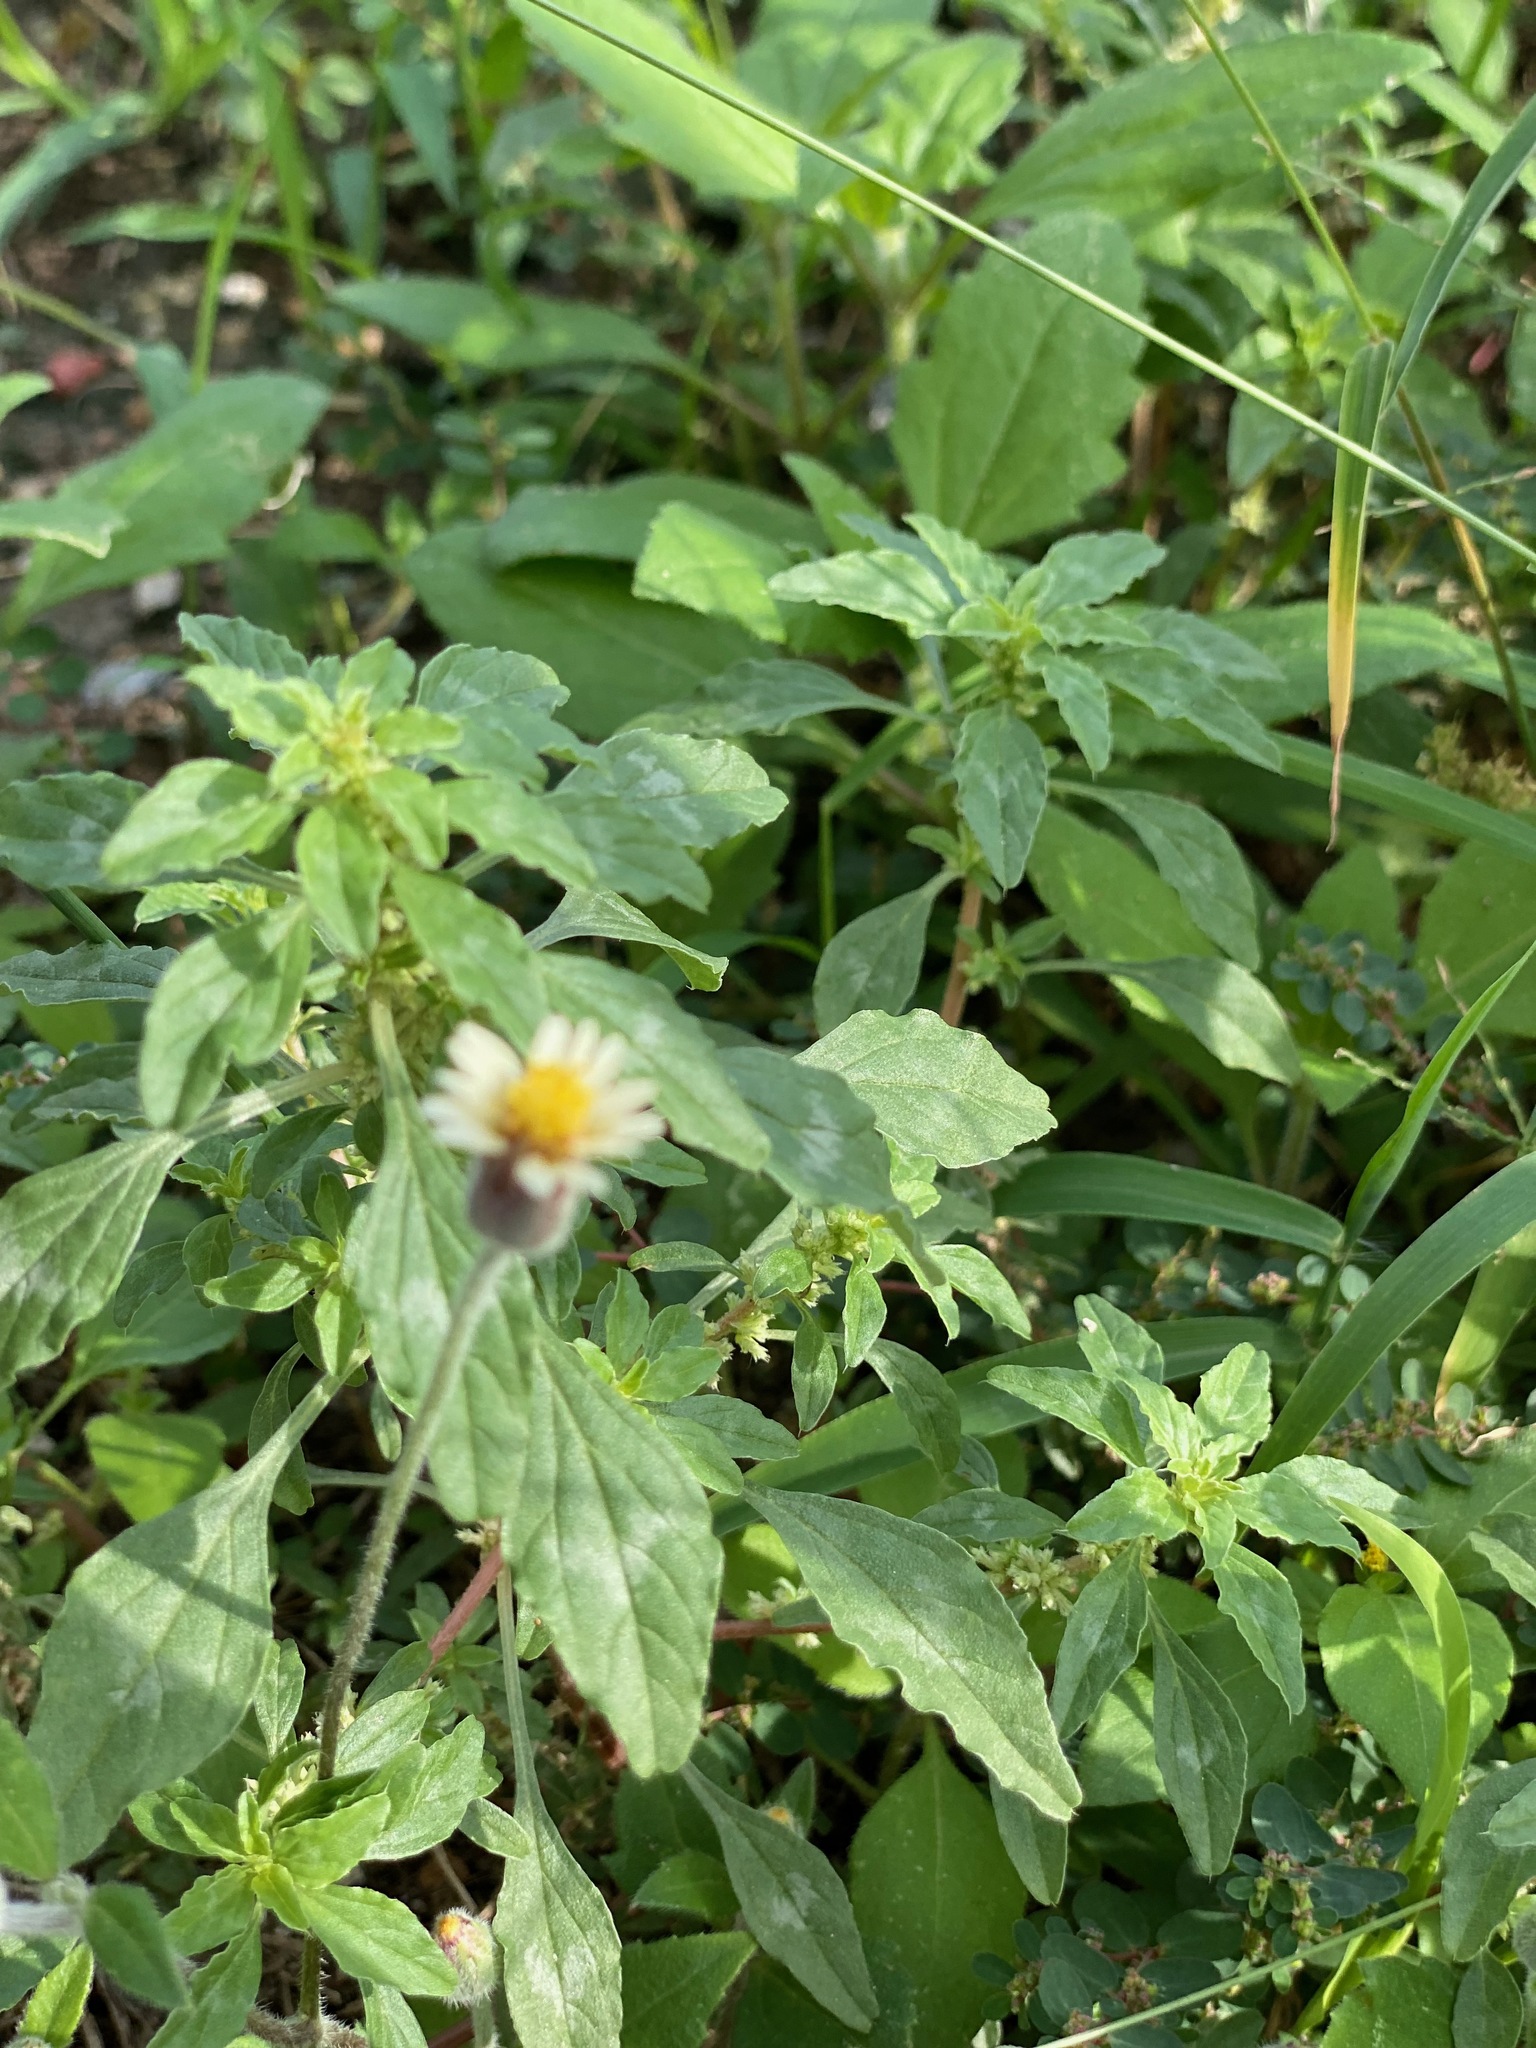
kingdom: Plantae
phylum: Tracheophyta
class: Magnoliopsida
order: Asterales
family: Asteraceae
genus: Tridax
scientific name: Tridax procumbens
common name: Coatbuttons
